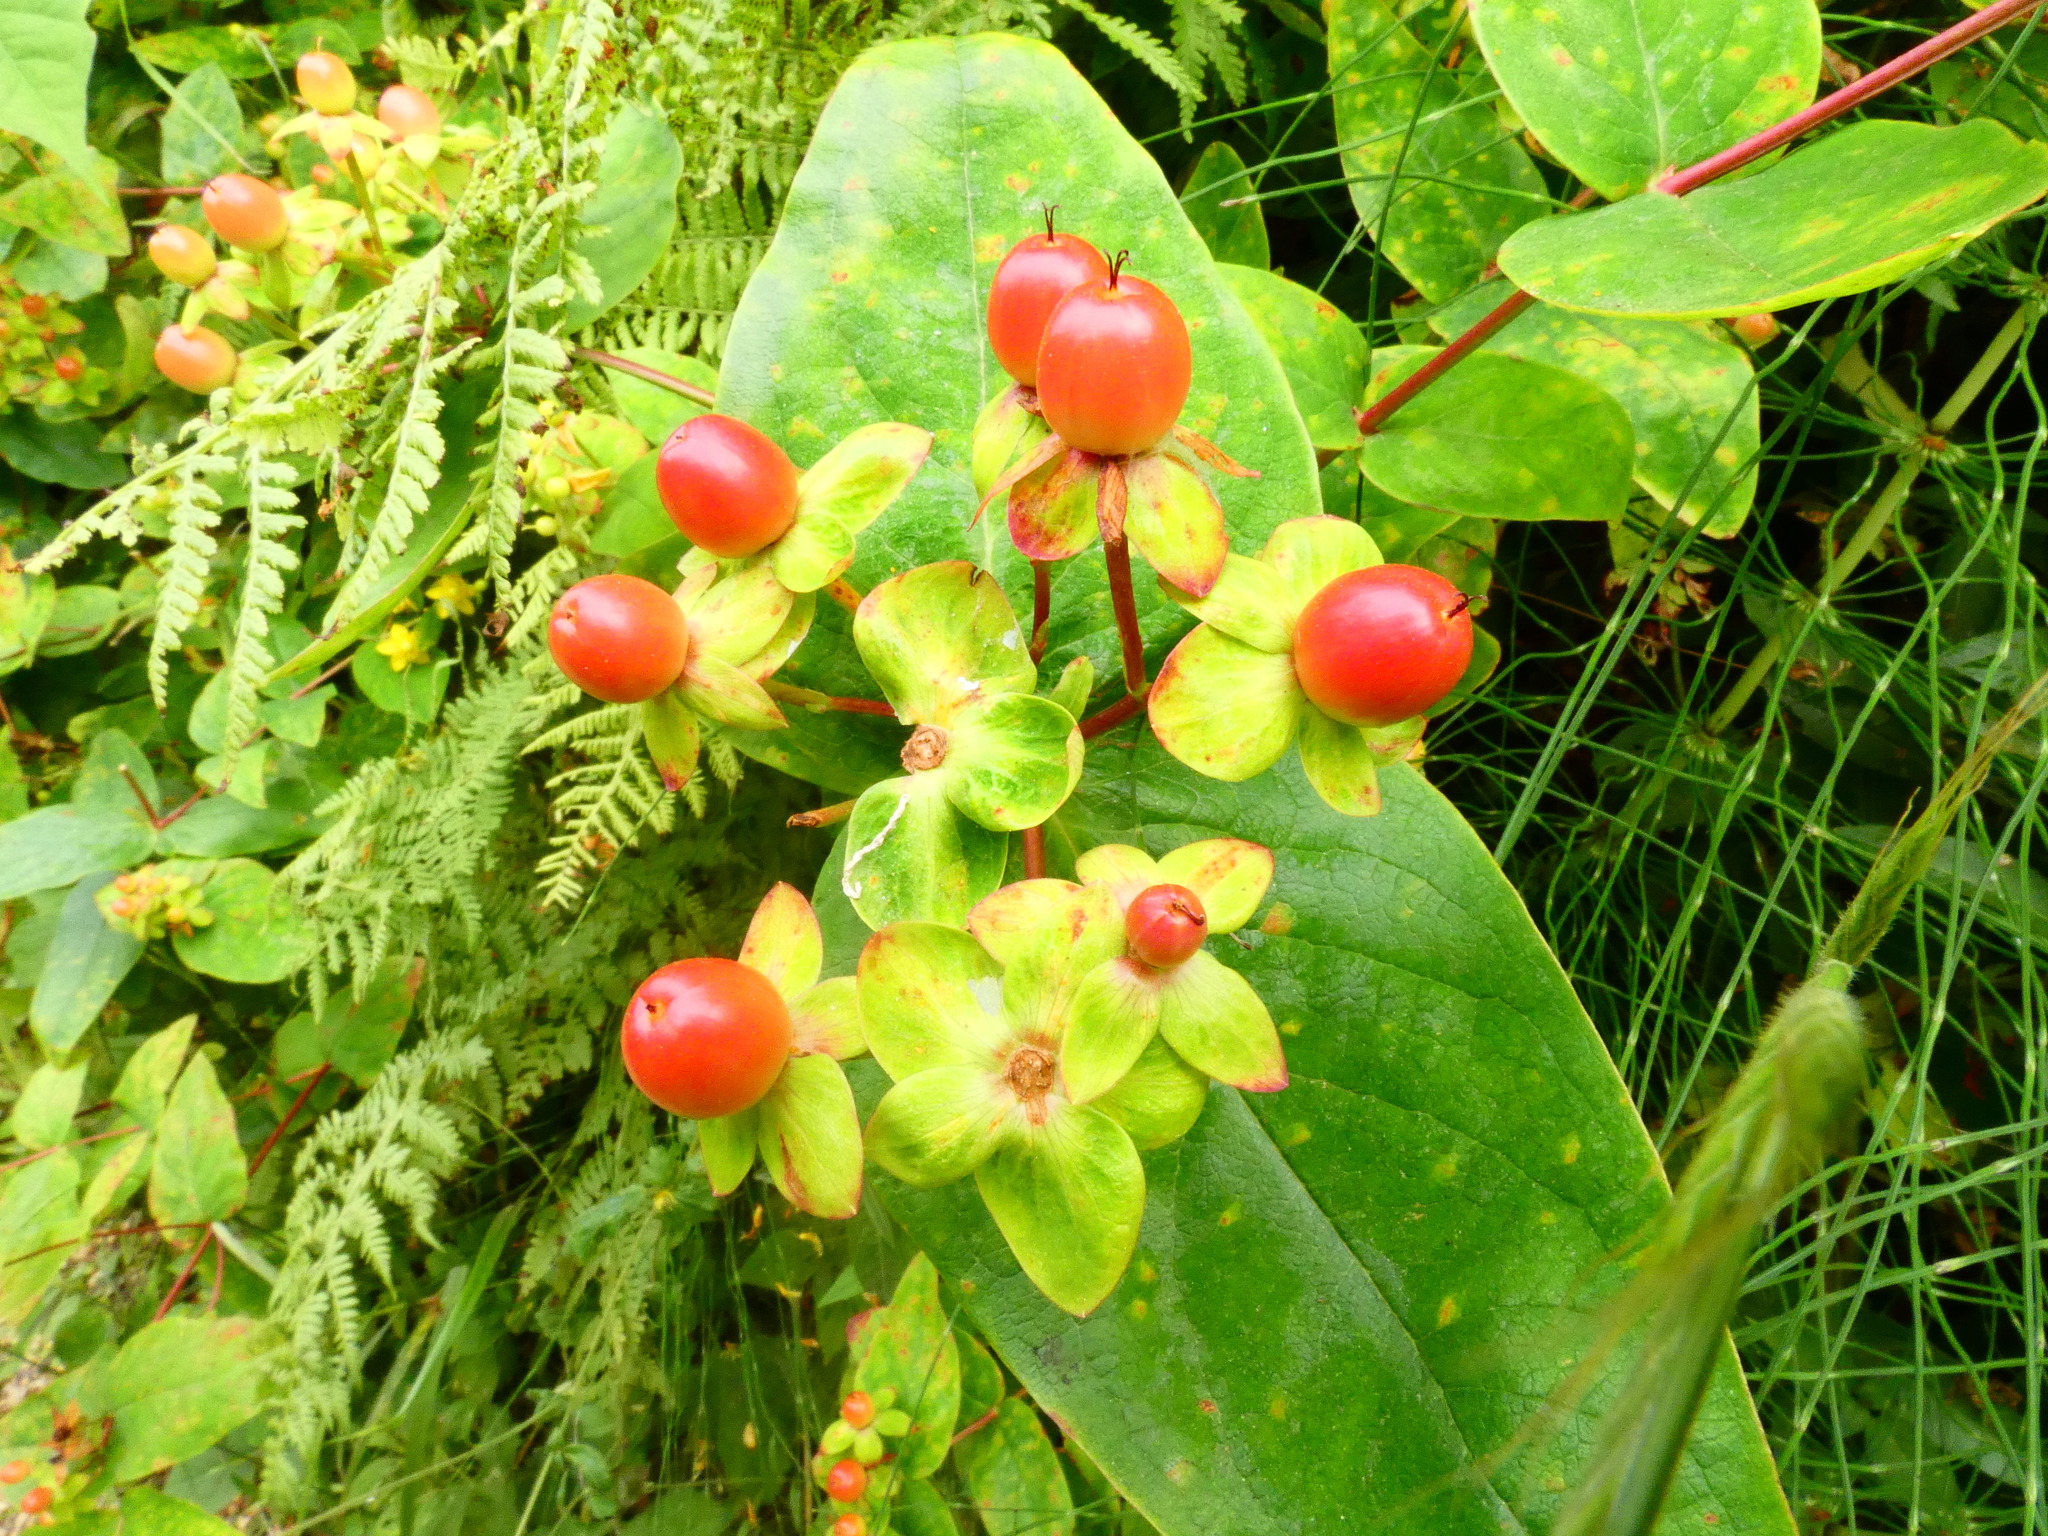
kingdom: Plantae
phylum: Tracheophyta
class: Magnoliopsida
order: Malpighiales
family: Hypericaceae
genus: Hypericum
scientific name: Hypericum androsaemum
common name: Sweet-amber
